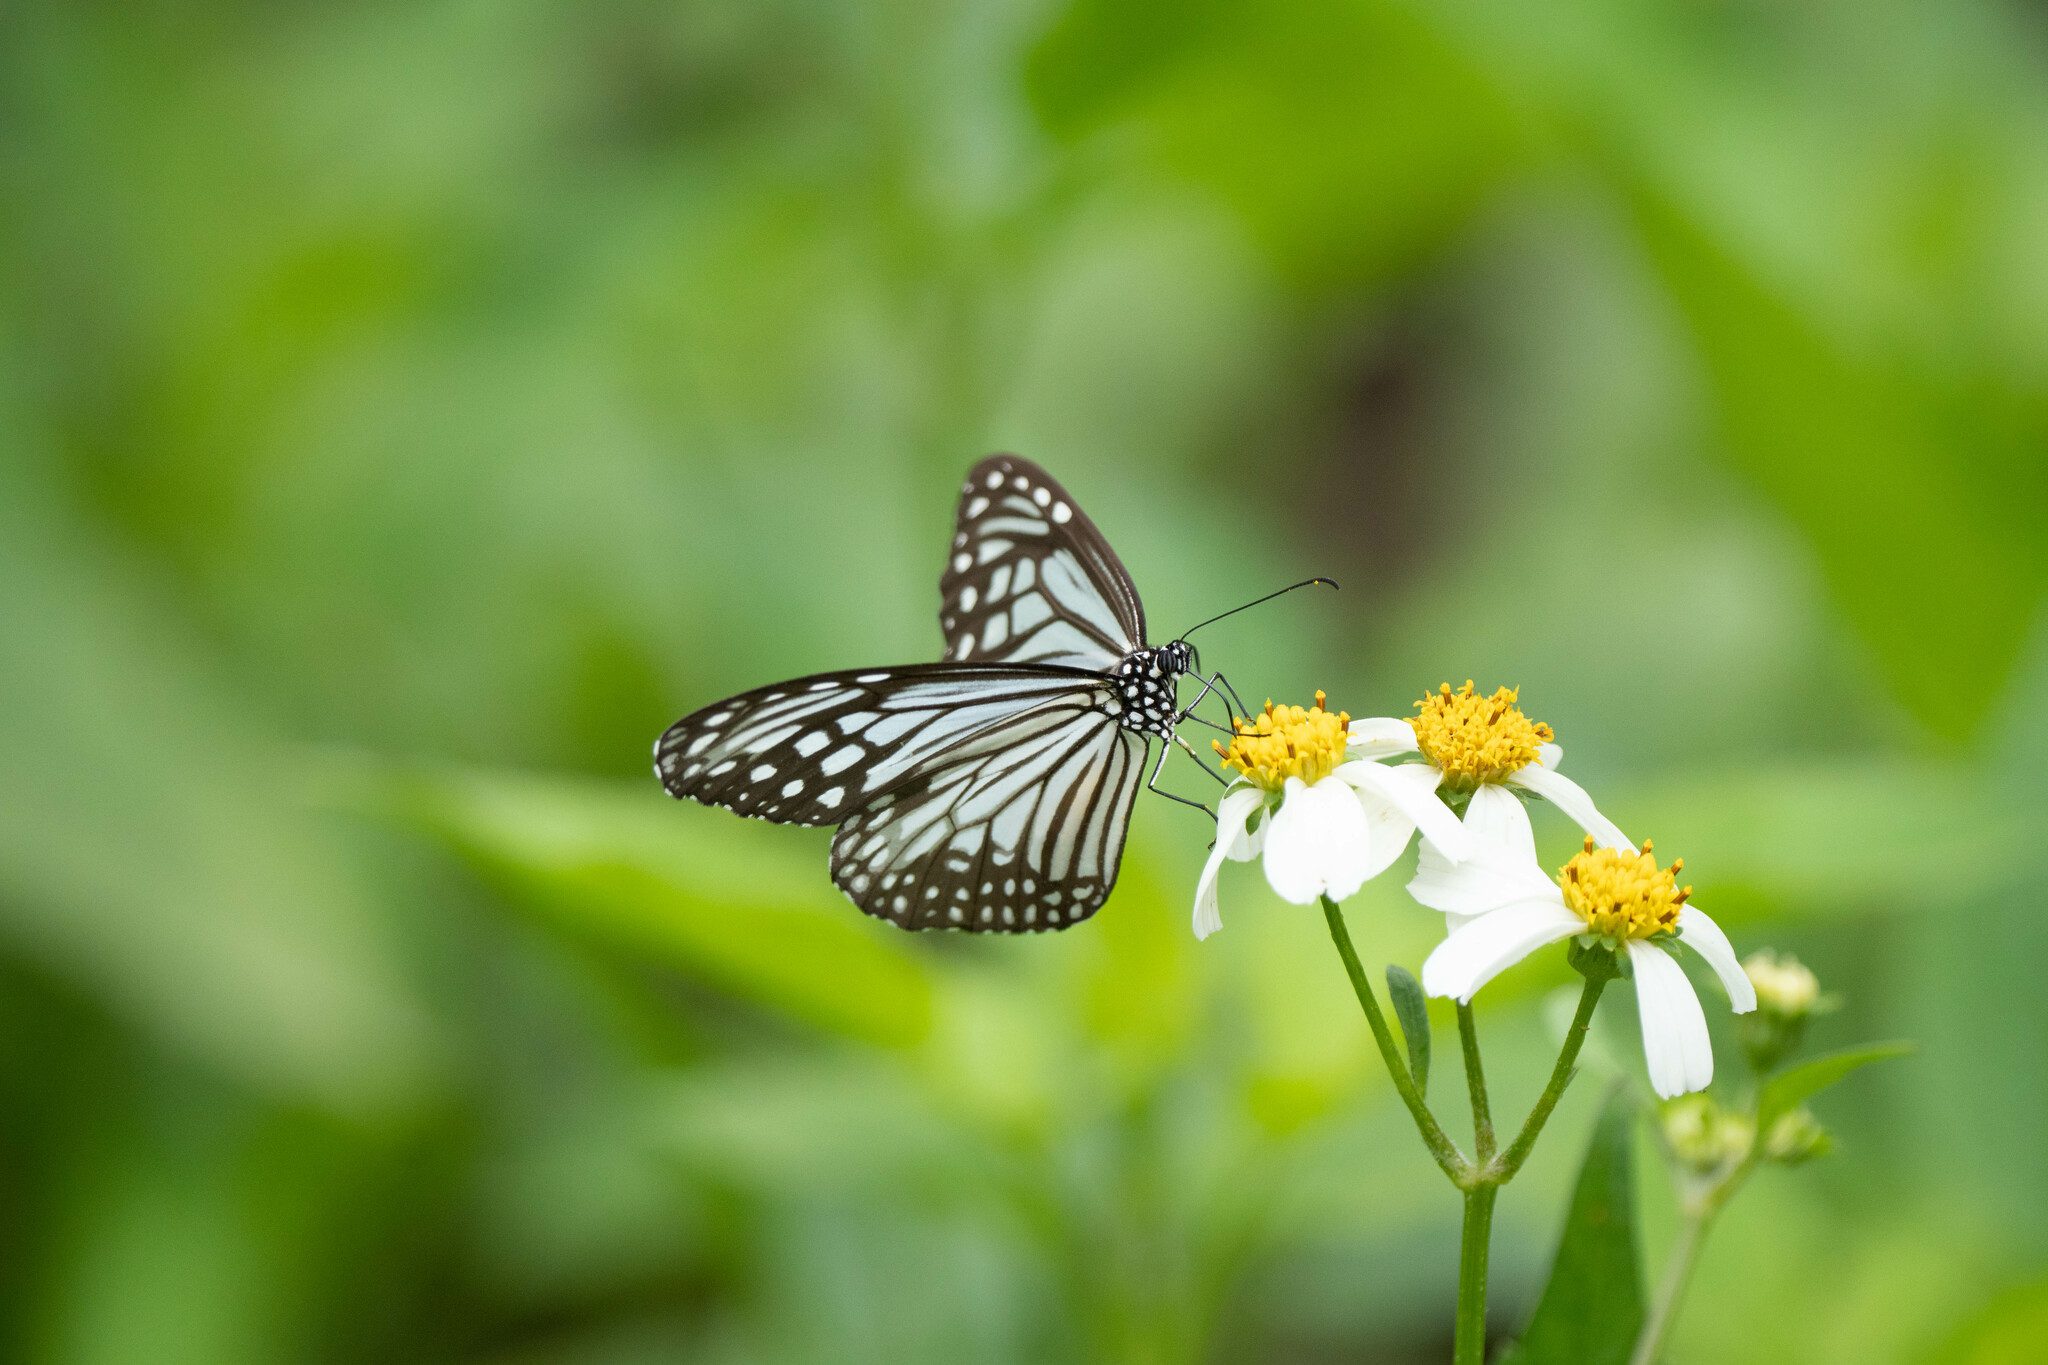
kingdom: Animalia
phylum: Arthropoda
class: Insecta
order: Lepidoptera
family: Nymphalidae
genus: Parantica
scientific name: Parantica aglea
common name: Glassy tiger
